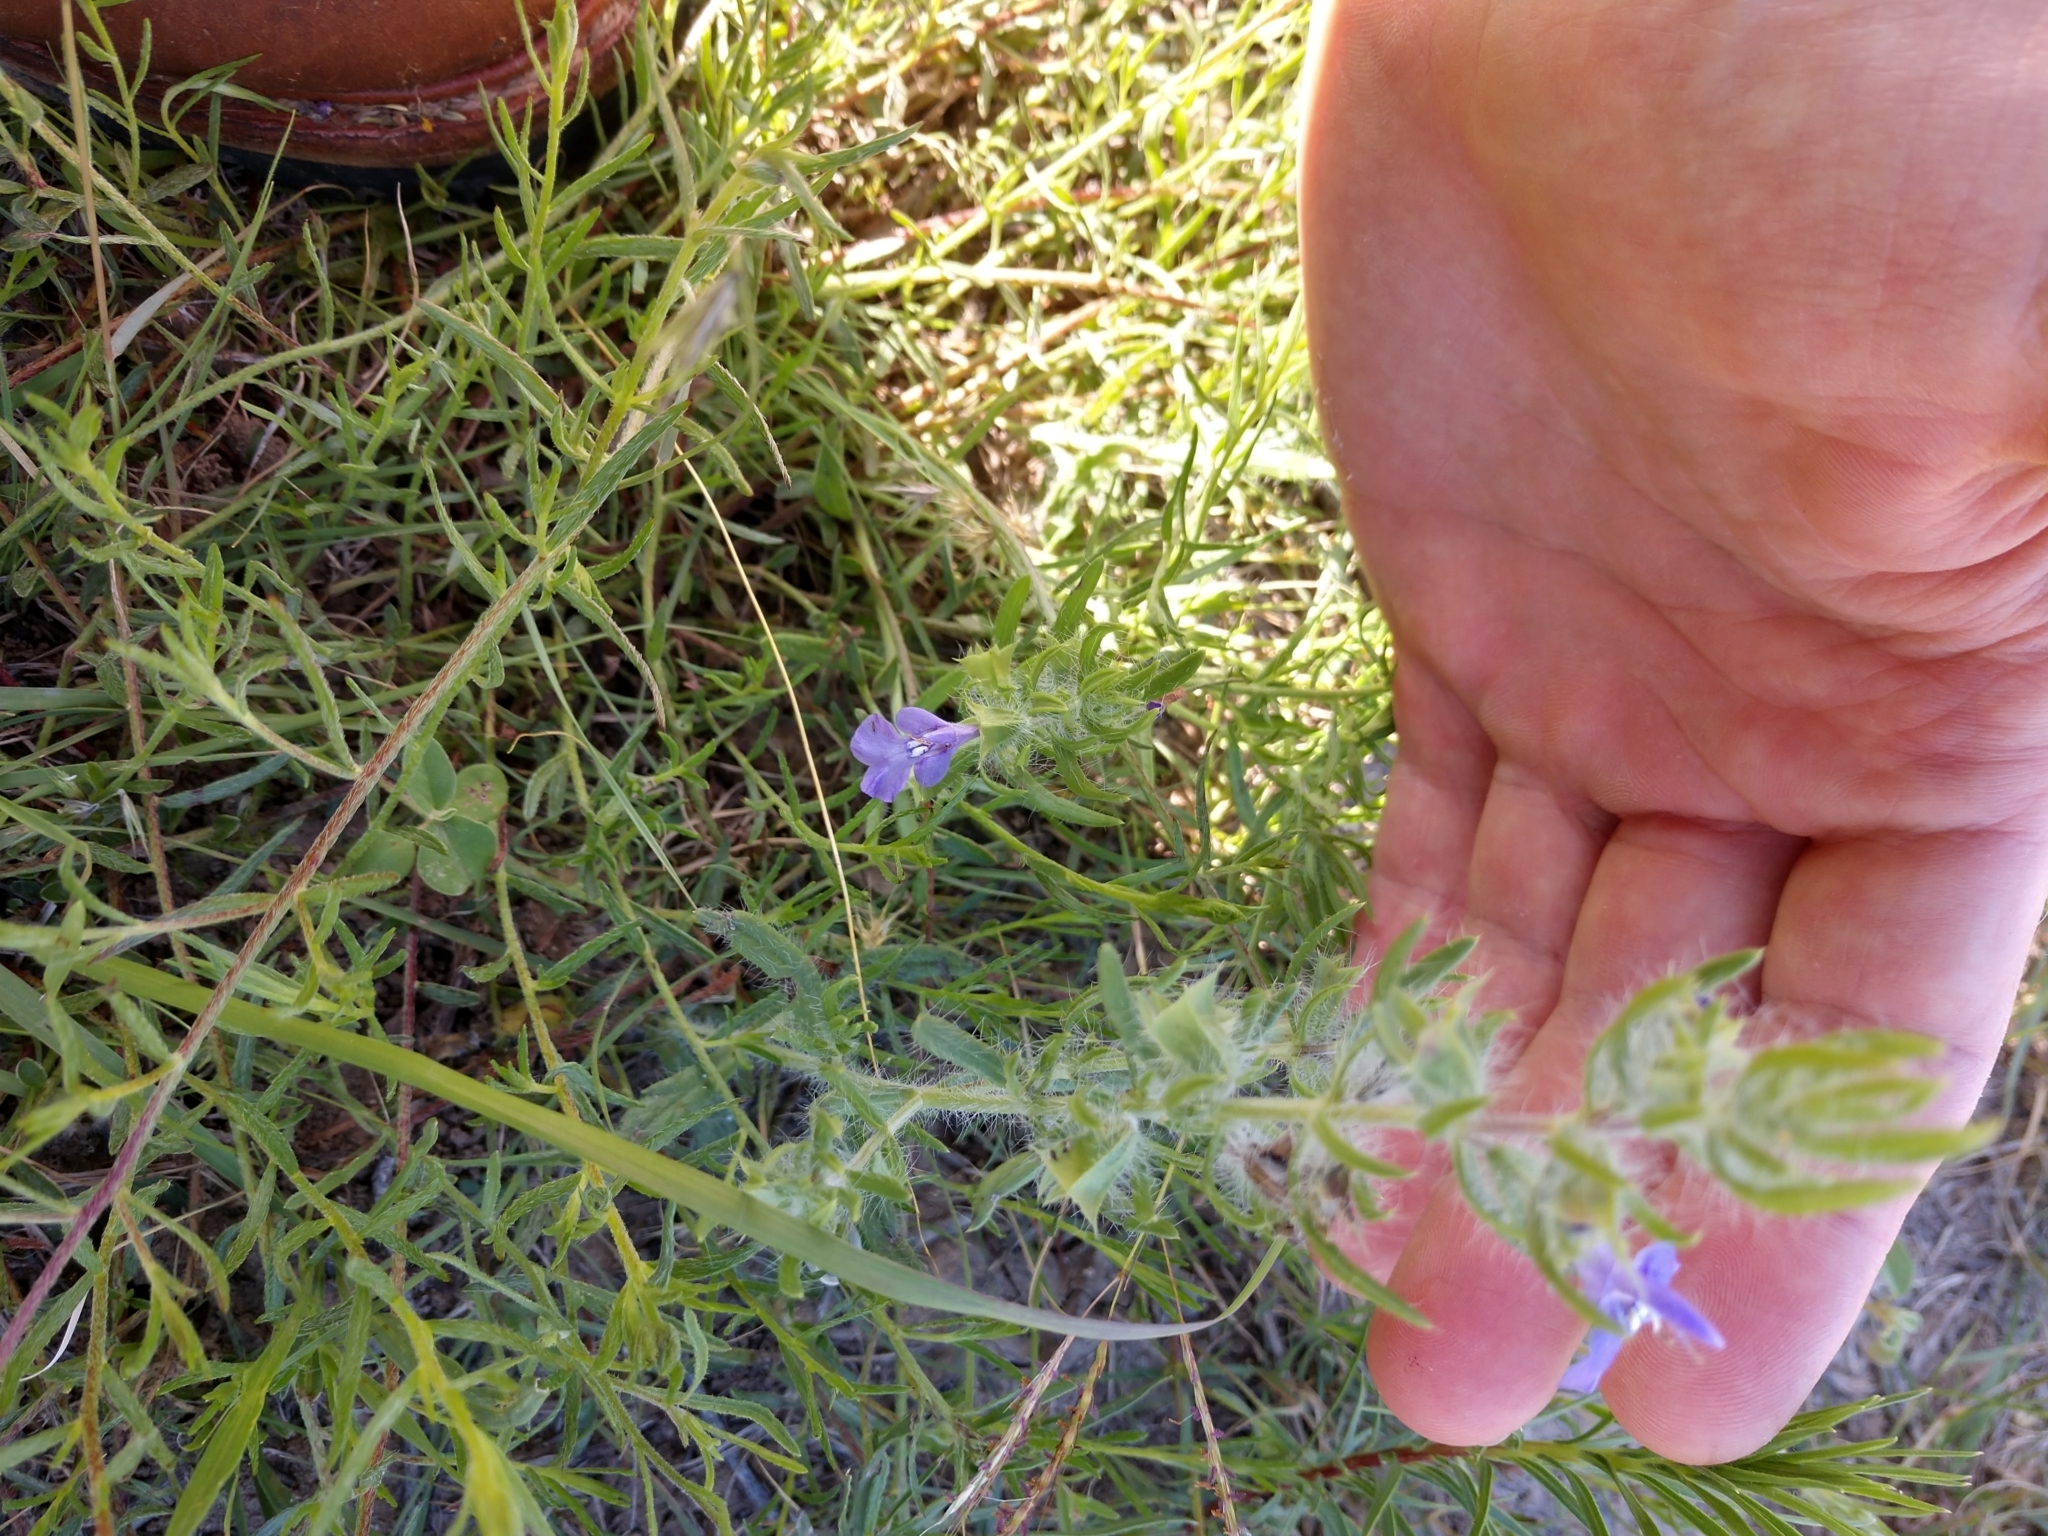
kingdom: Plantae
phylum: Tracheophyta
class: Magnoliopsida
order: Lamiales
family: Lamiaceae
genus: Salvia
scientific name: Salvia texana
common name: Texas sage
